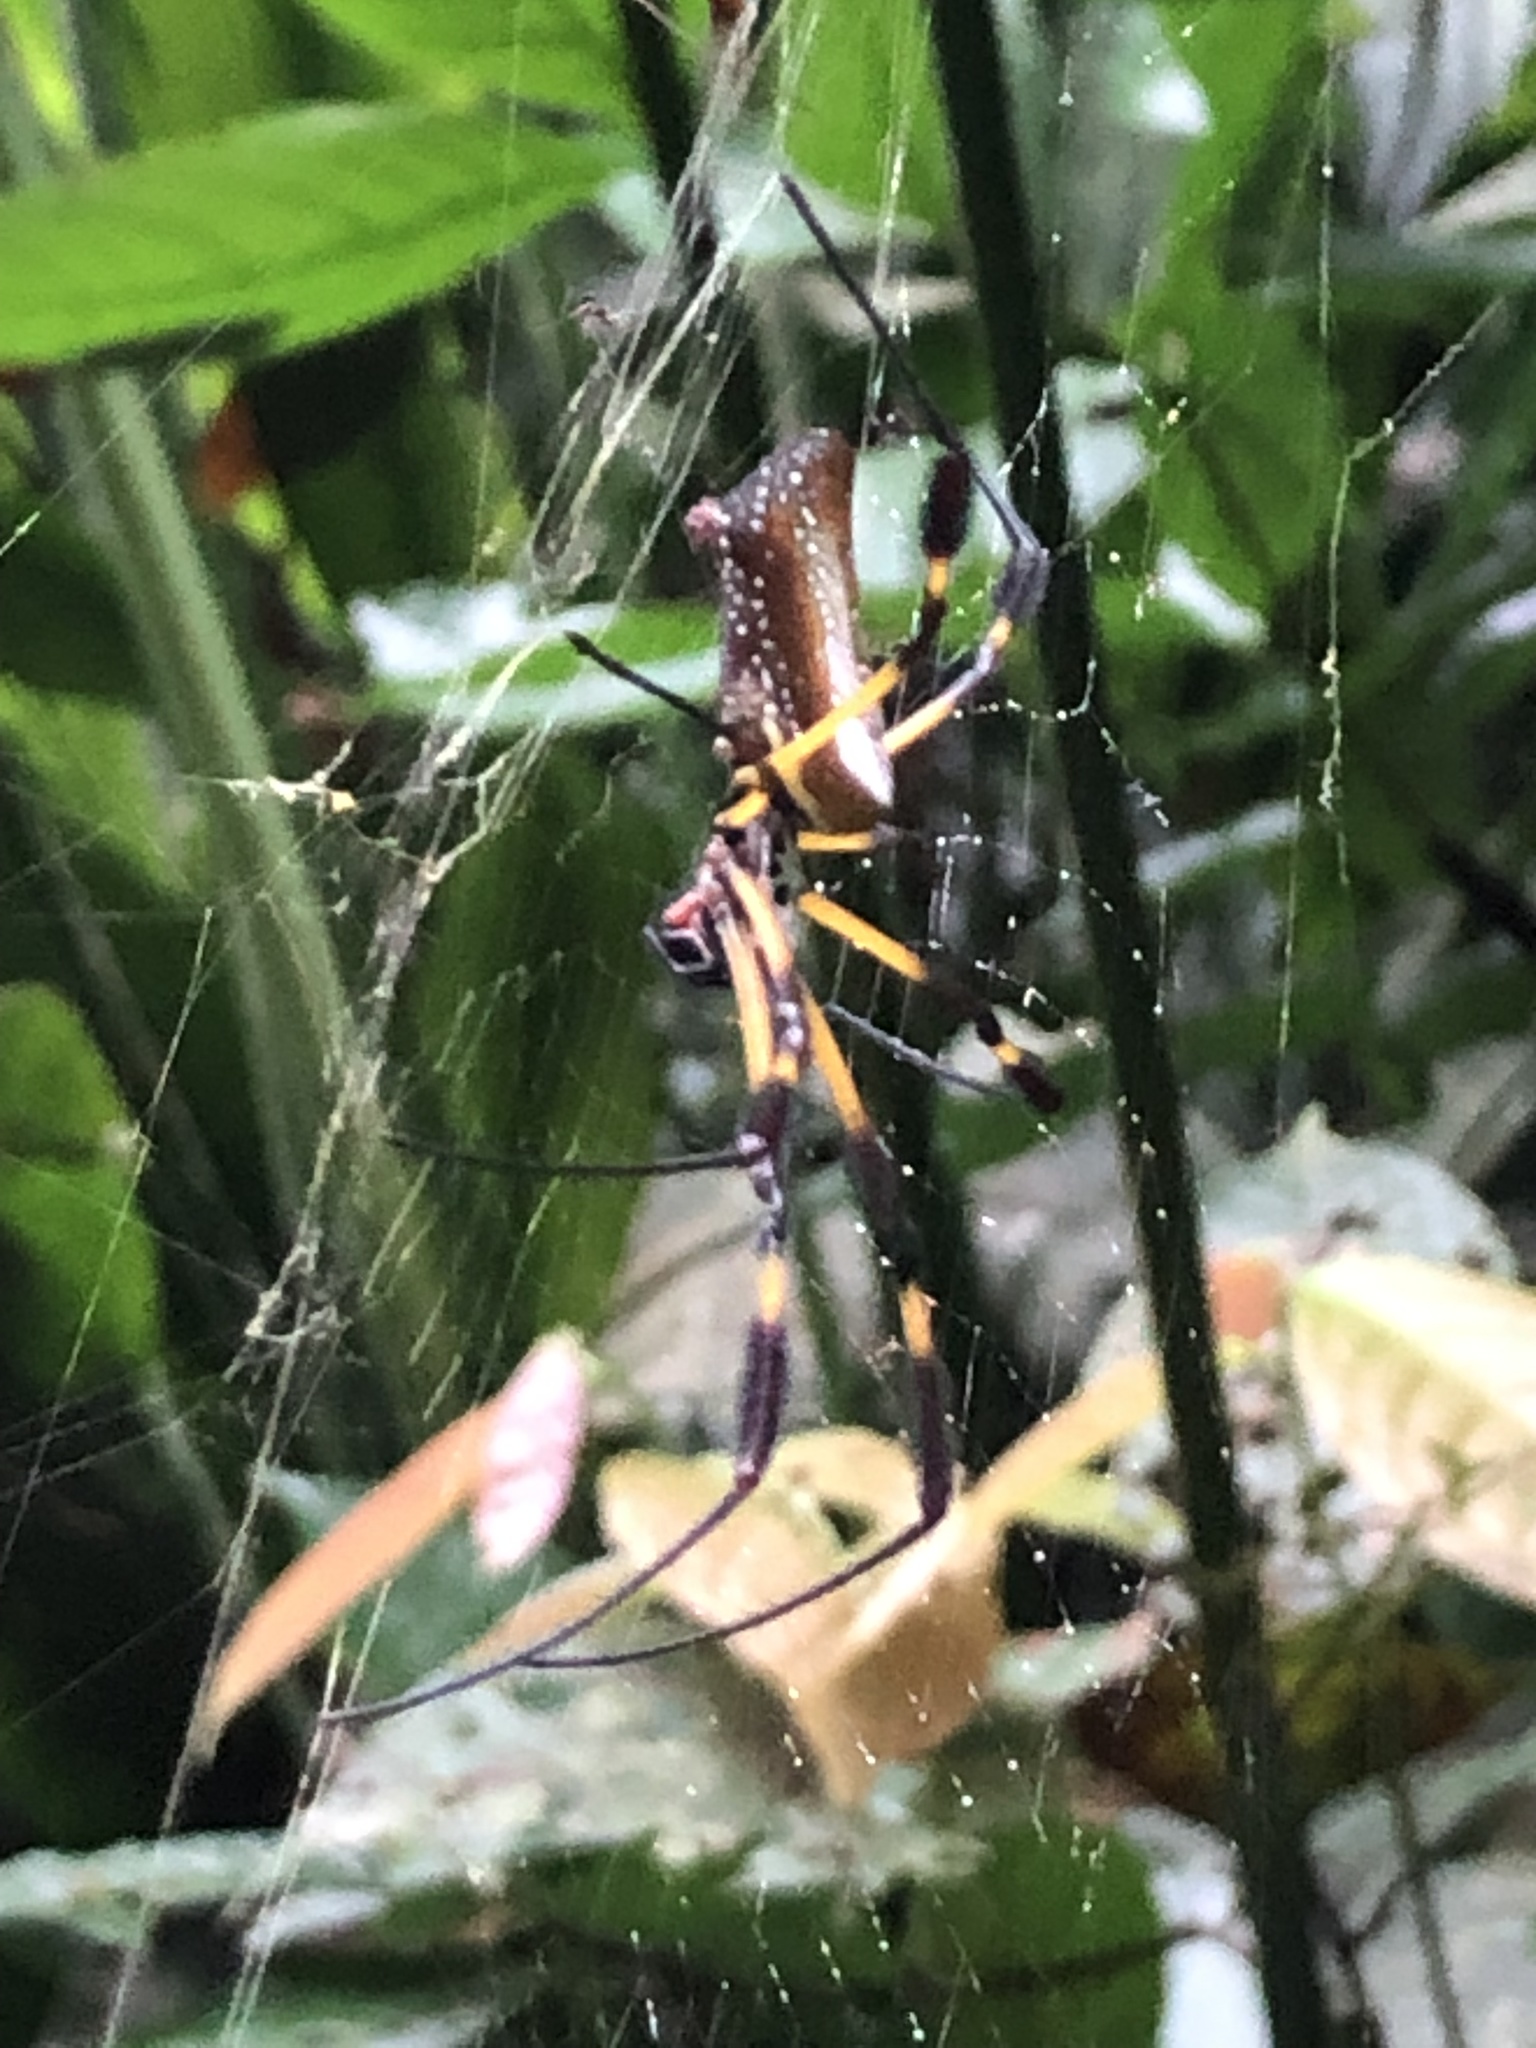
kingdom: Animalia
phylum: Arthropoda
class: Arachnida
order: Araneae
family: Araneidae
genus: Trichonephila
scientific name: Trichonephila clavipes
